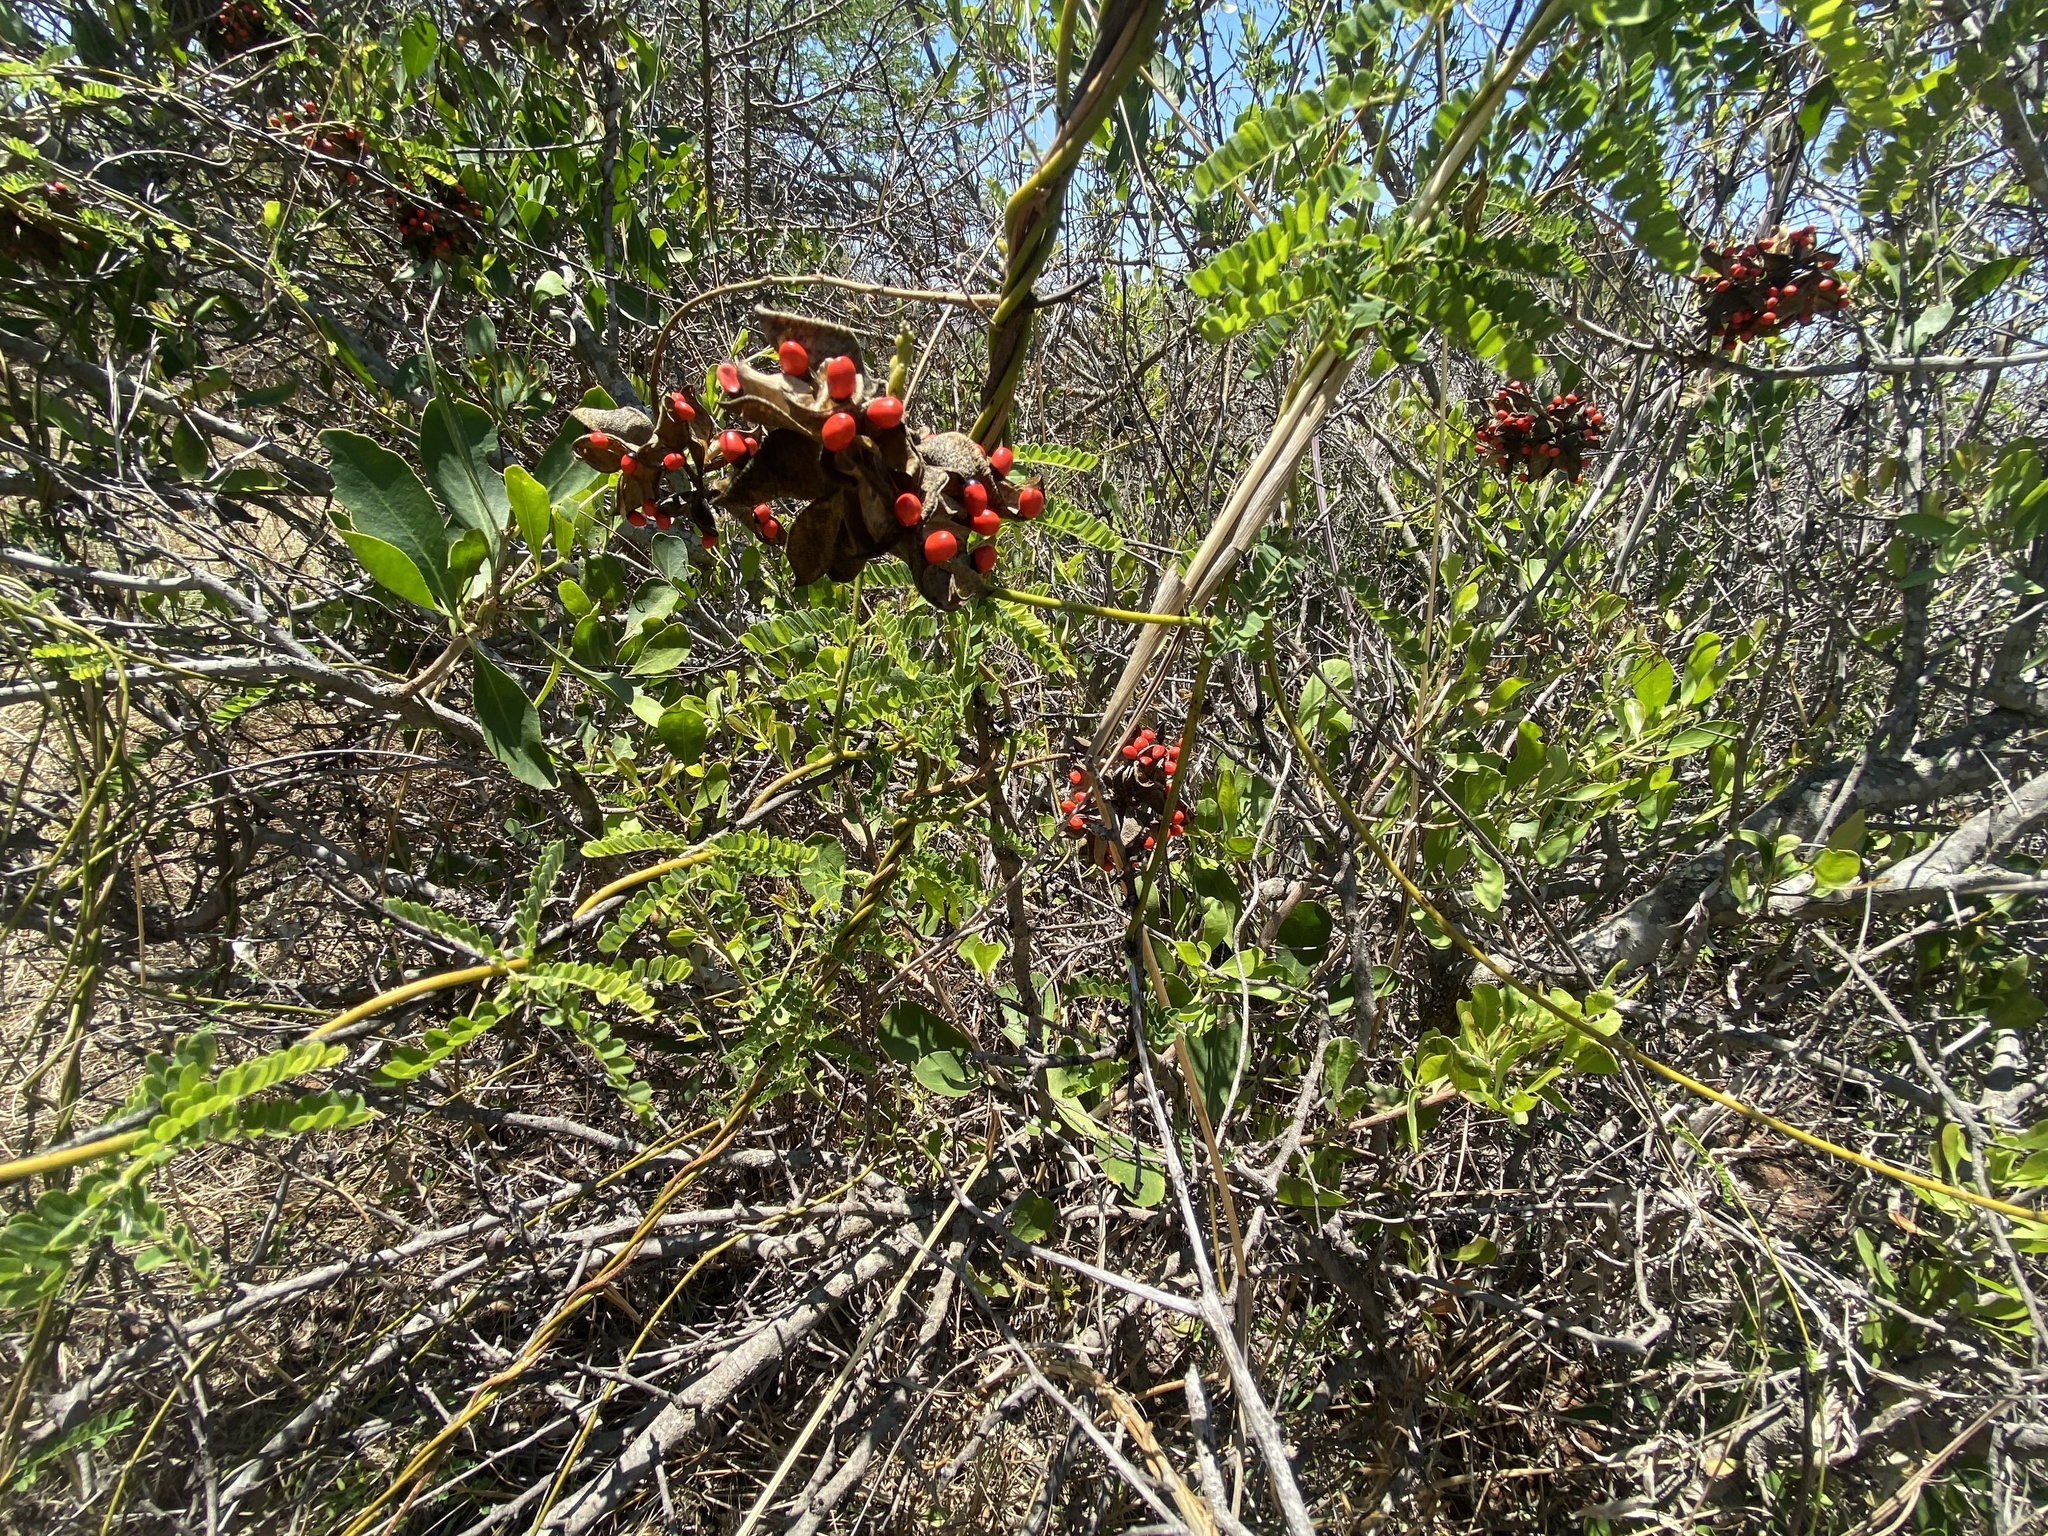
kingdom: Plantae
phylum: Tracheophyta
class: Magnoliopsida
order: Fabales
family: Fabaceae
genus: Abrus
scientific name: Abrus precatorius
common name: Rosarypea
